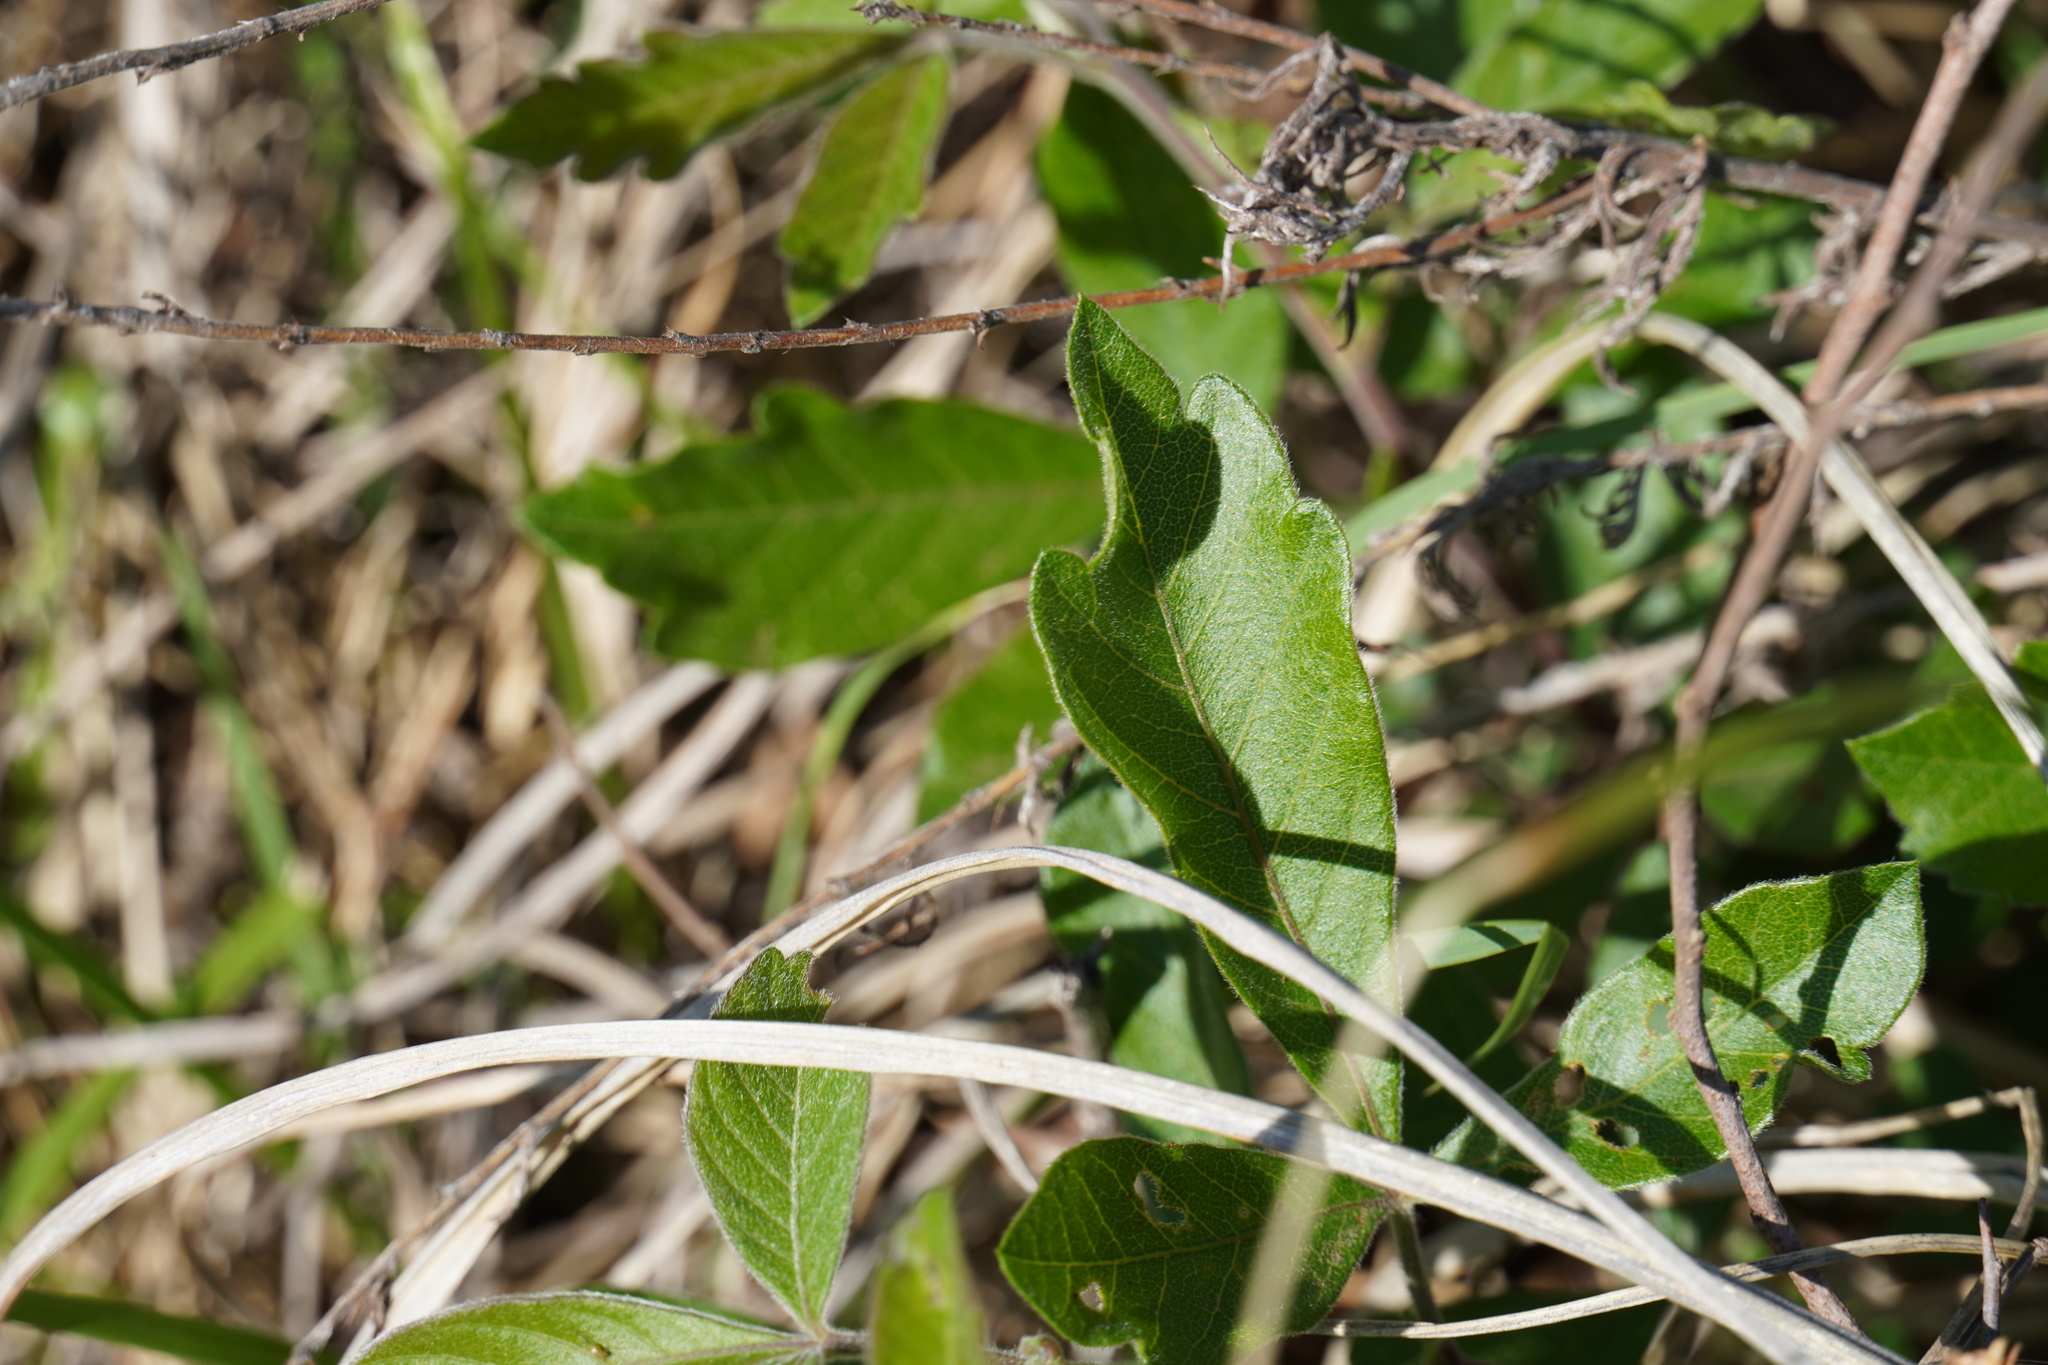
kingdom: Plantae
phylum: Tracheophyta
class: Magnoliopsida
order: Sapindales
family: Anacardiaceae
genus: Searsia
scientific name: Searsia pyroides
